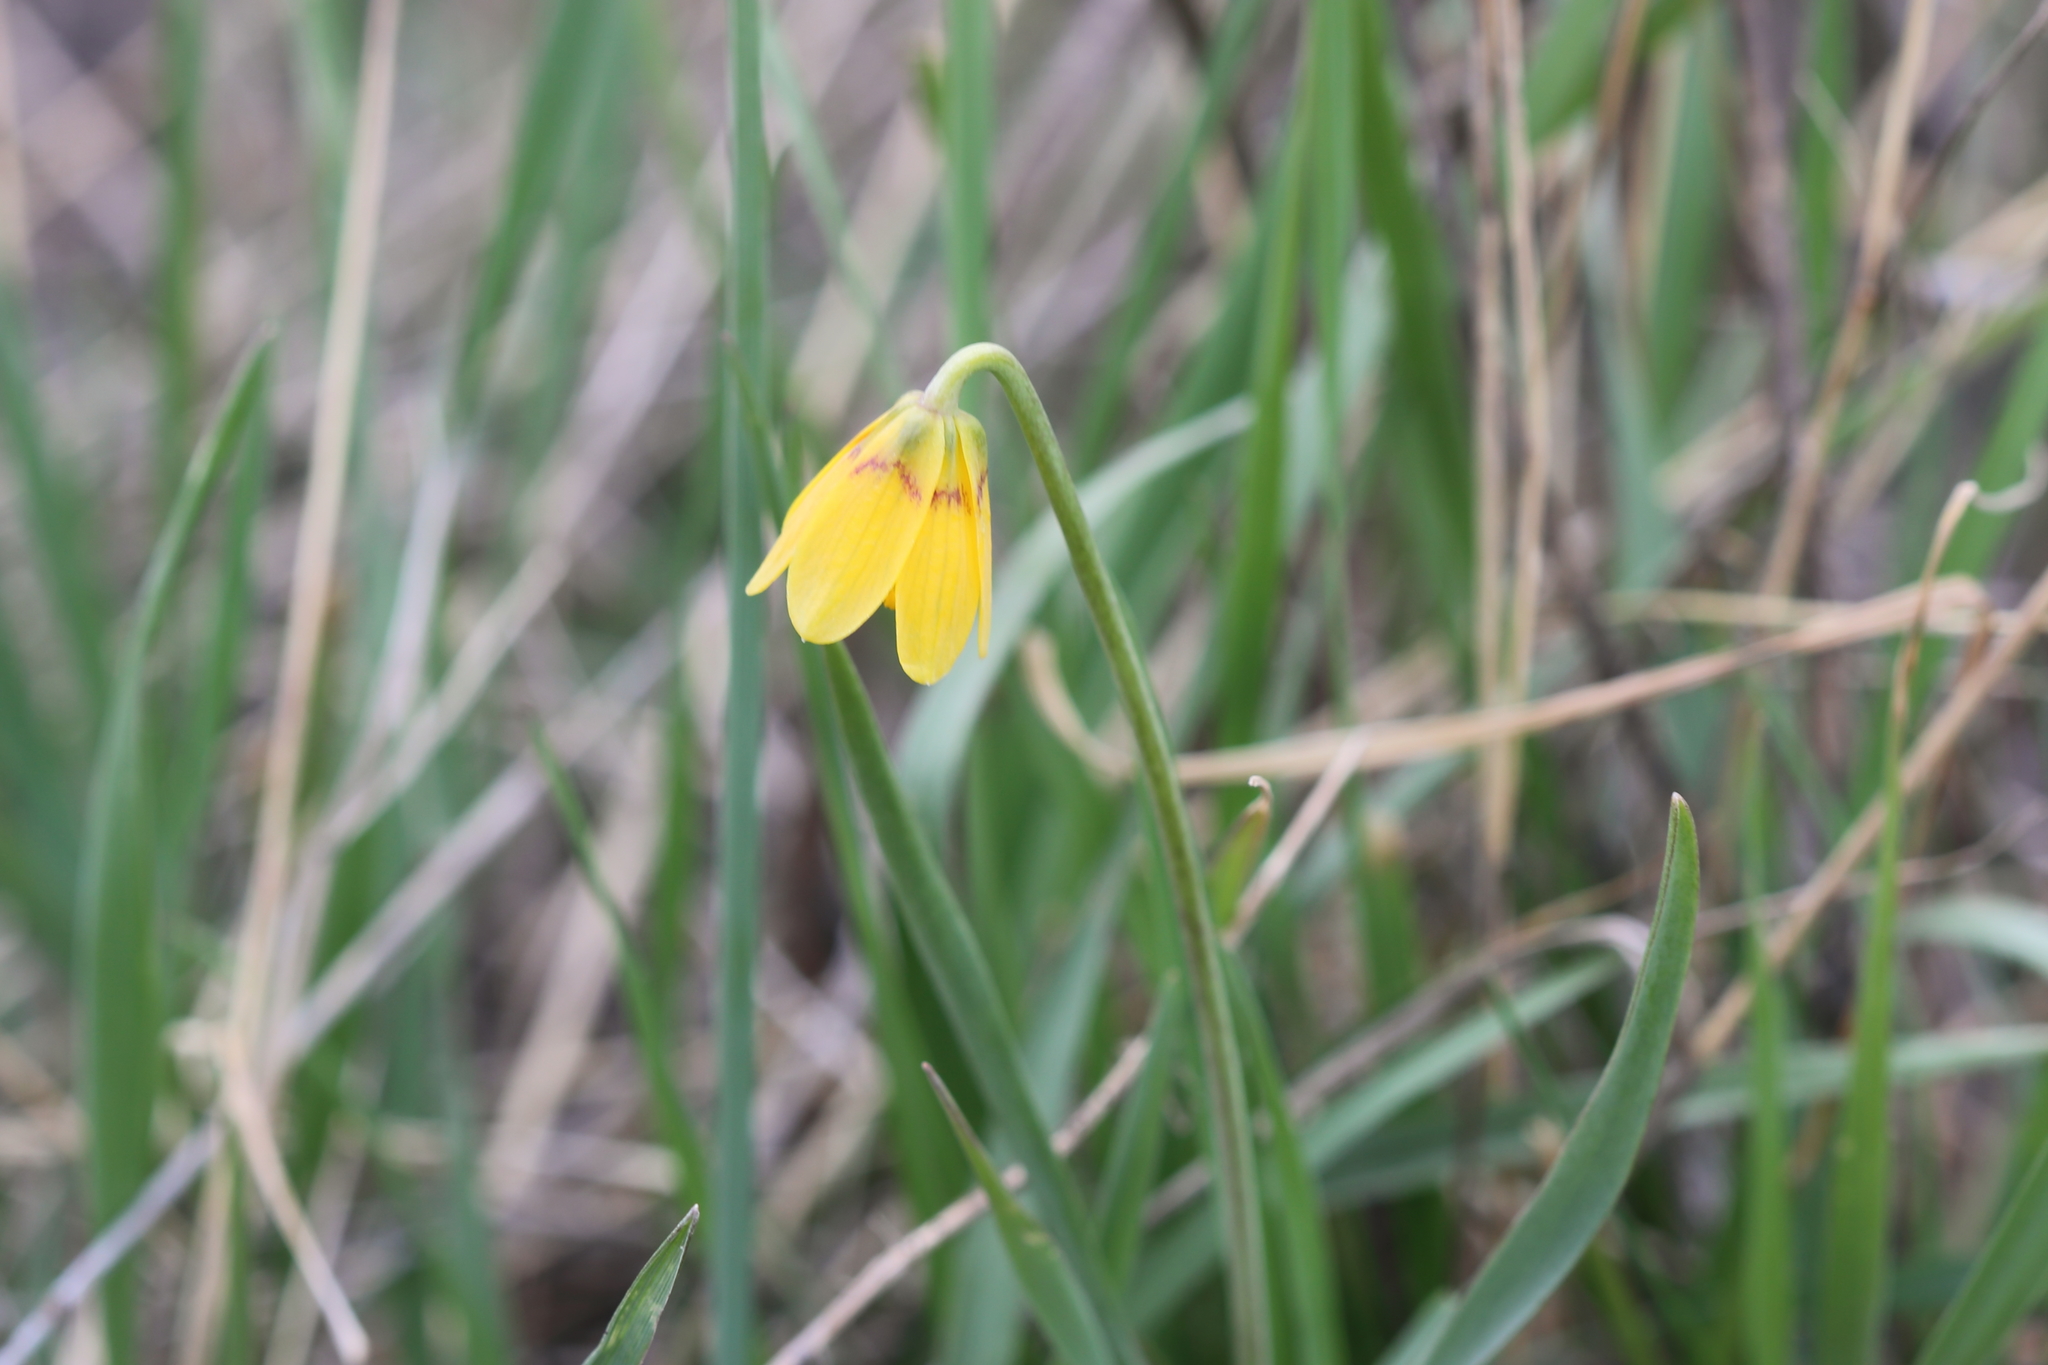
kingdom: Plantae
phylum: Tracheophyta
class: Liliopsida
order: Liliales
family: Liliaceae
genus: Fritillaria
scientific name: Fritillaria pudica
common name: Yellow fritillary
